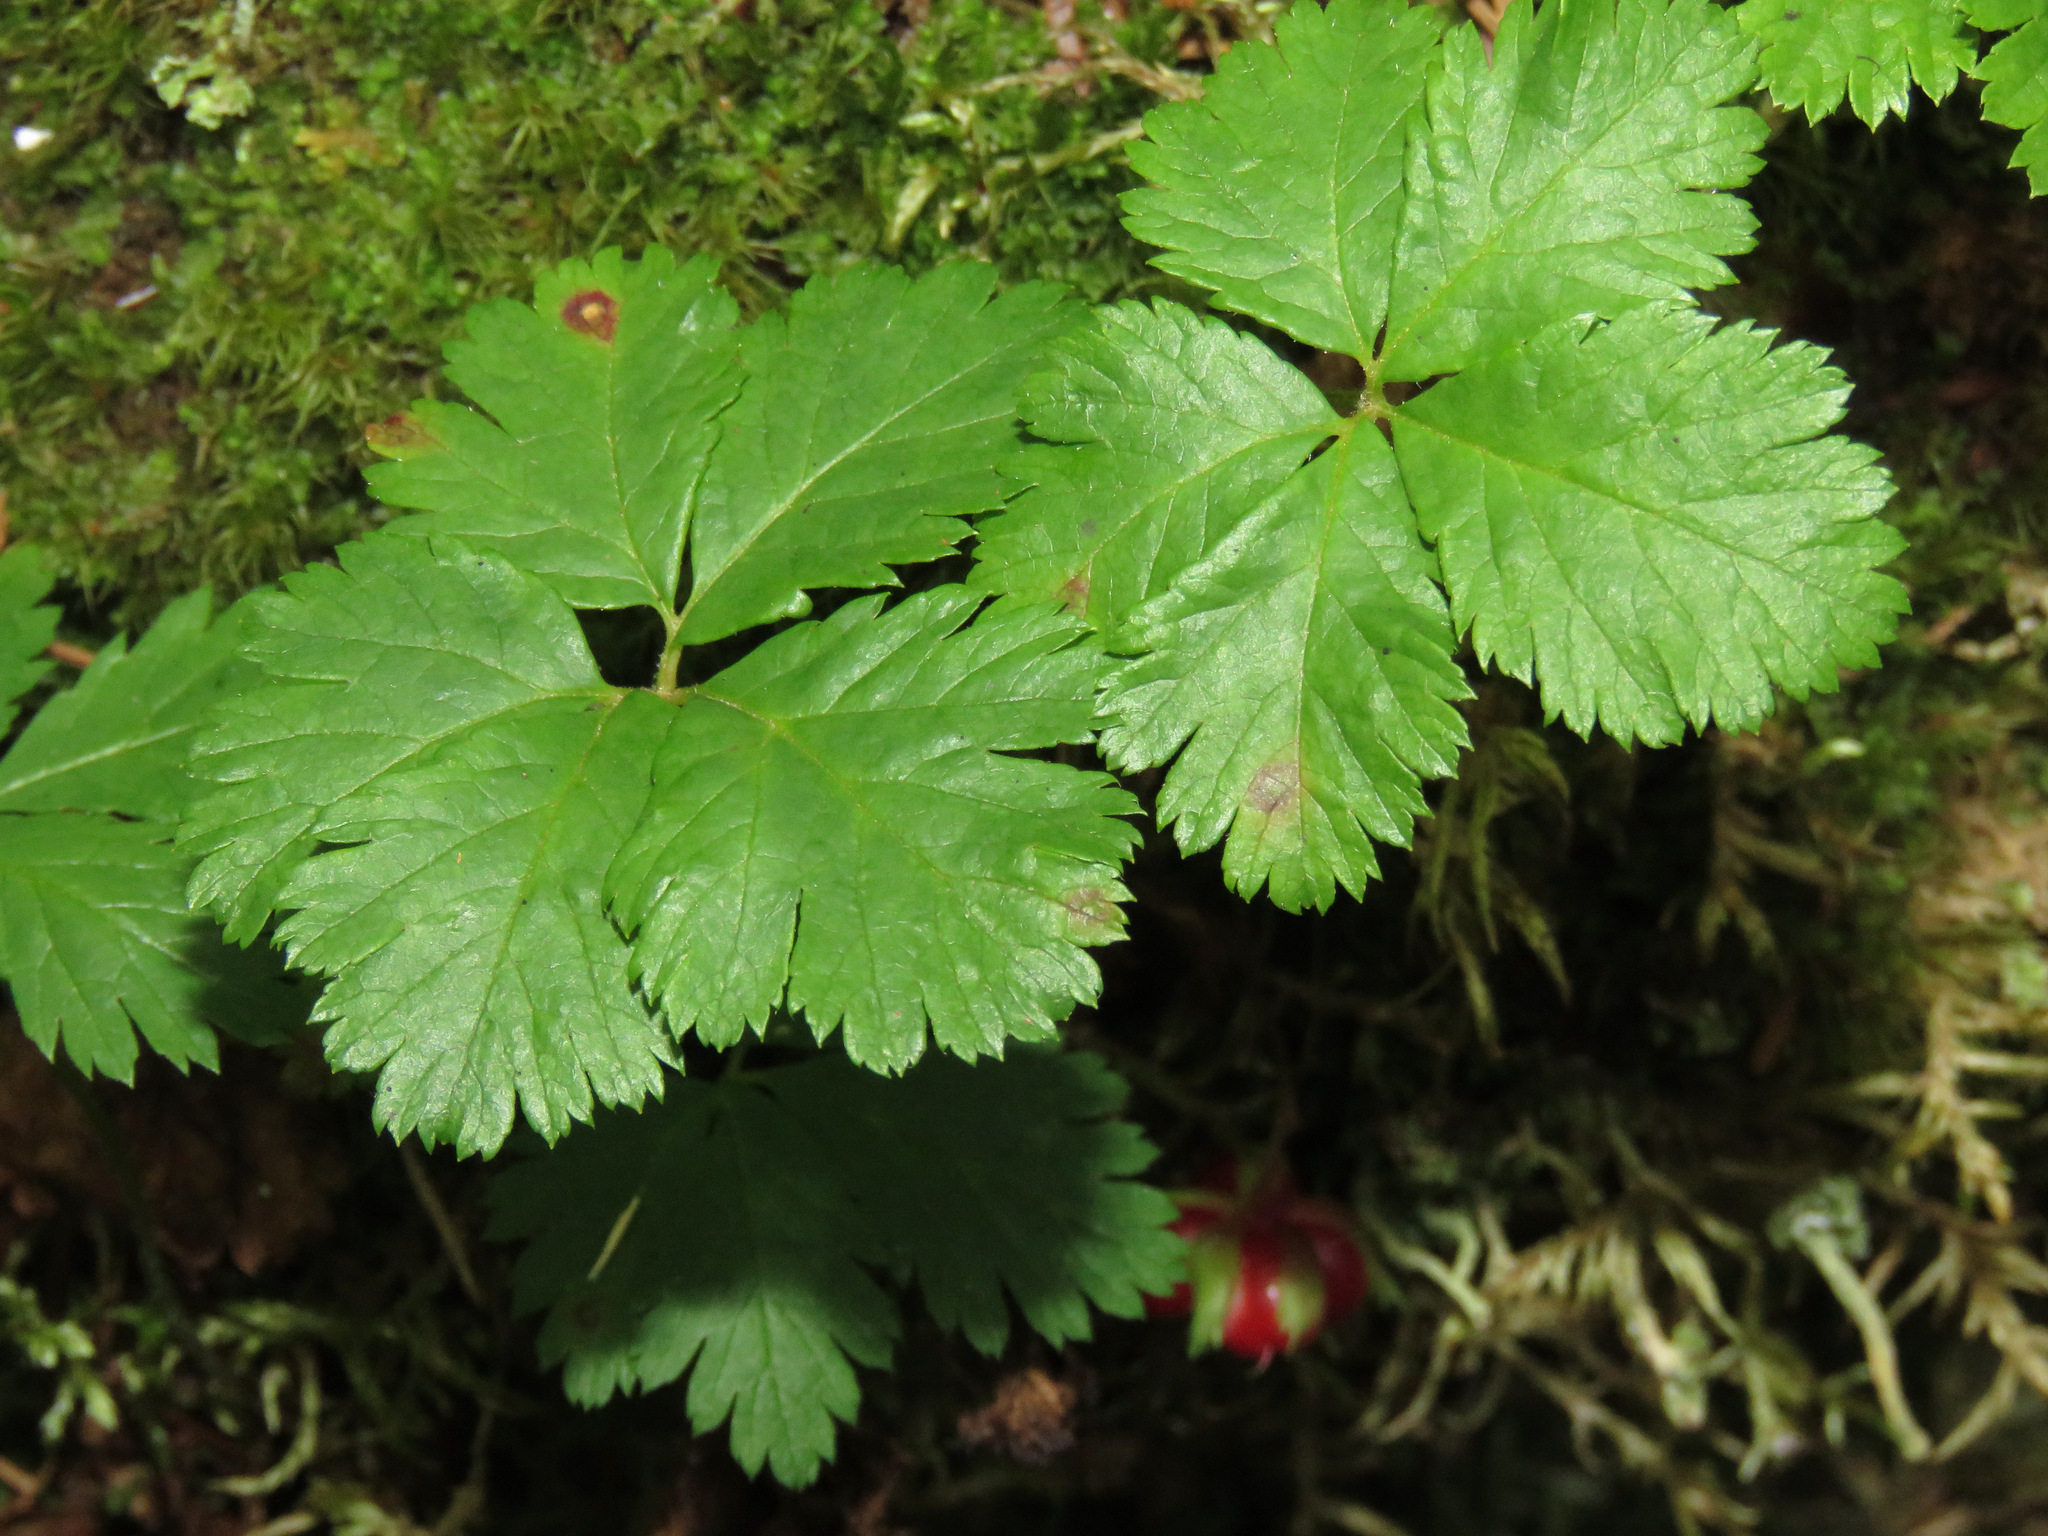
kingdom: Plantae
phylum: Tracheophyta
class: Magnoliopsida
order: Rosales
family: Rosaceae
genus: Rubus
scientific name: Rubus pedatus
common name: Creeping raspberry
